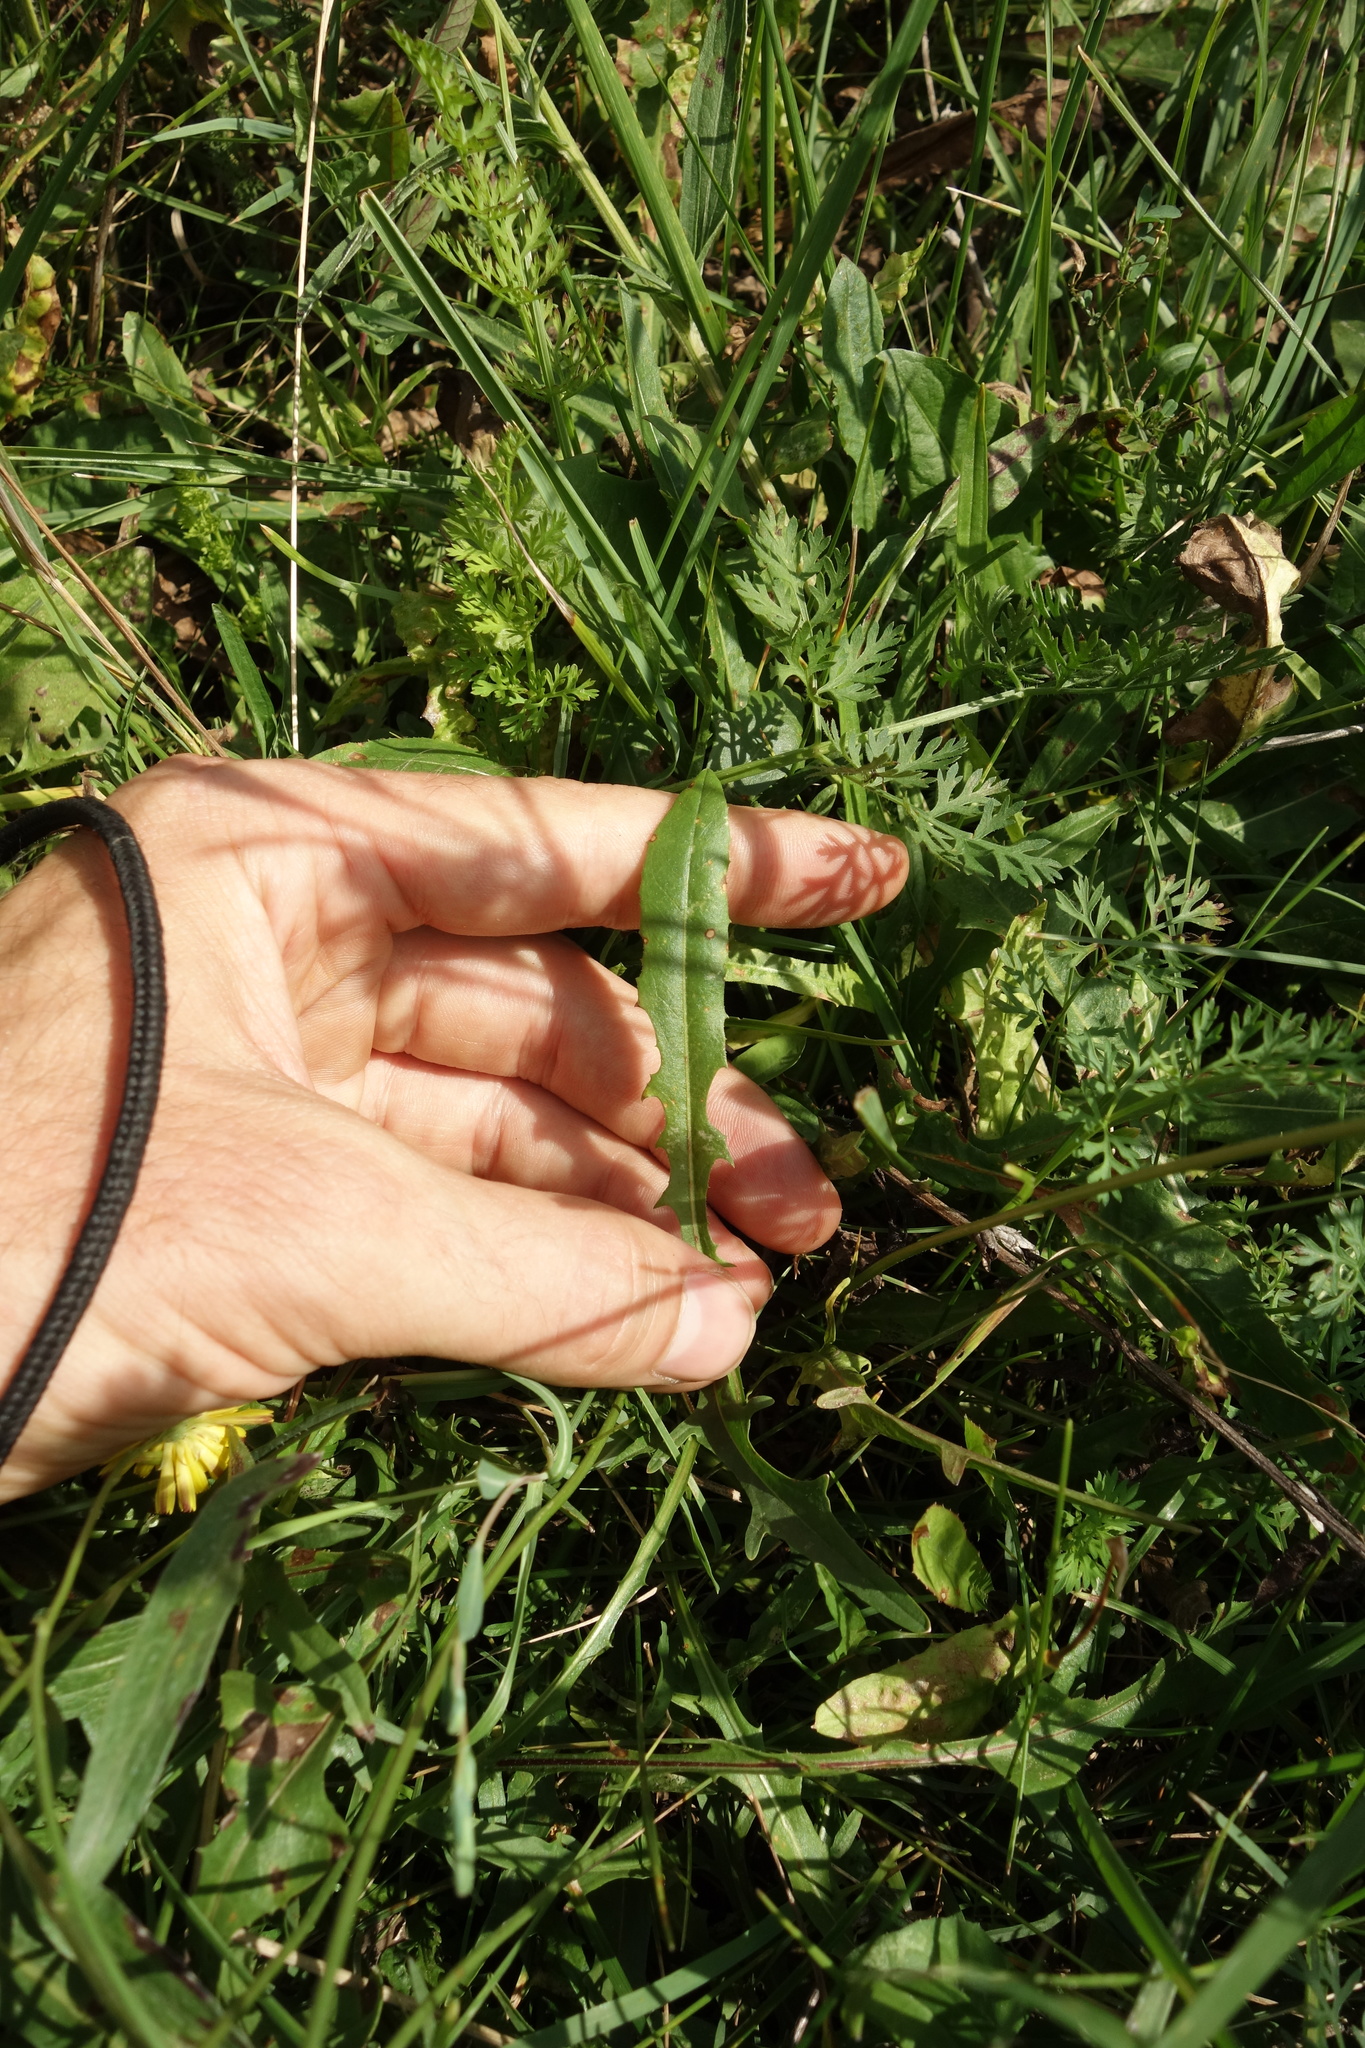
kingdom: Plantae
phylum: Tracheophyta
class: Magnoliopsida
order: Asterales
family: Asteraceae
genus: Scorzoneroides
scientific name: Scorzoneroides autumnalis
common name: Autumn hawkbit
